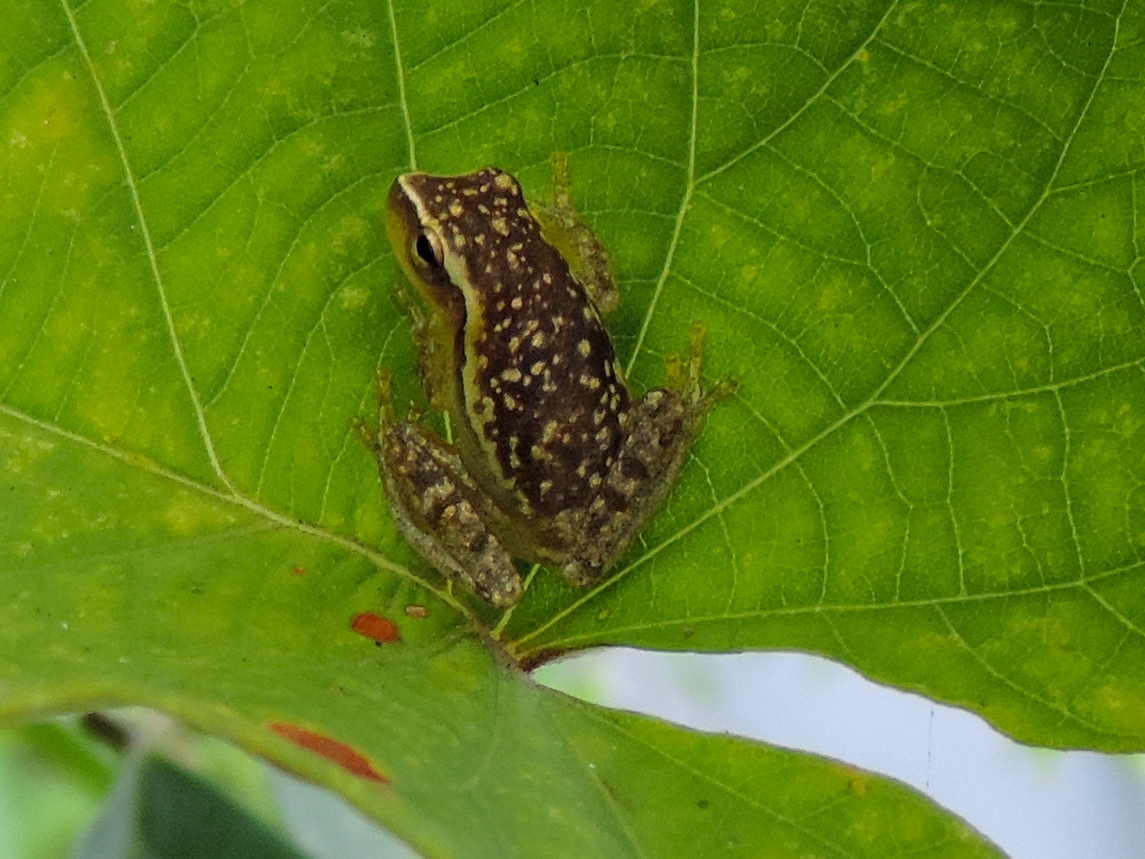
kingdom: Animalia
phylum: Chordata
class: Amphibia
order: Anura
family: Hylidae
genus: Tlalocohyla
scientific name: Tlalocohyla smithii
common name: Dwarf mexican treefrog
